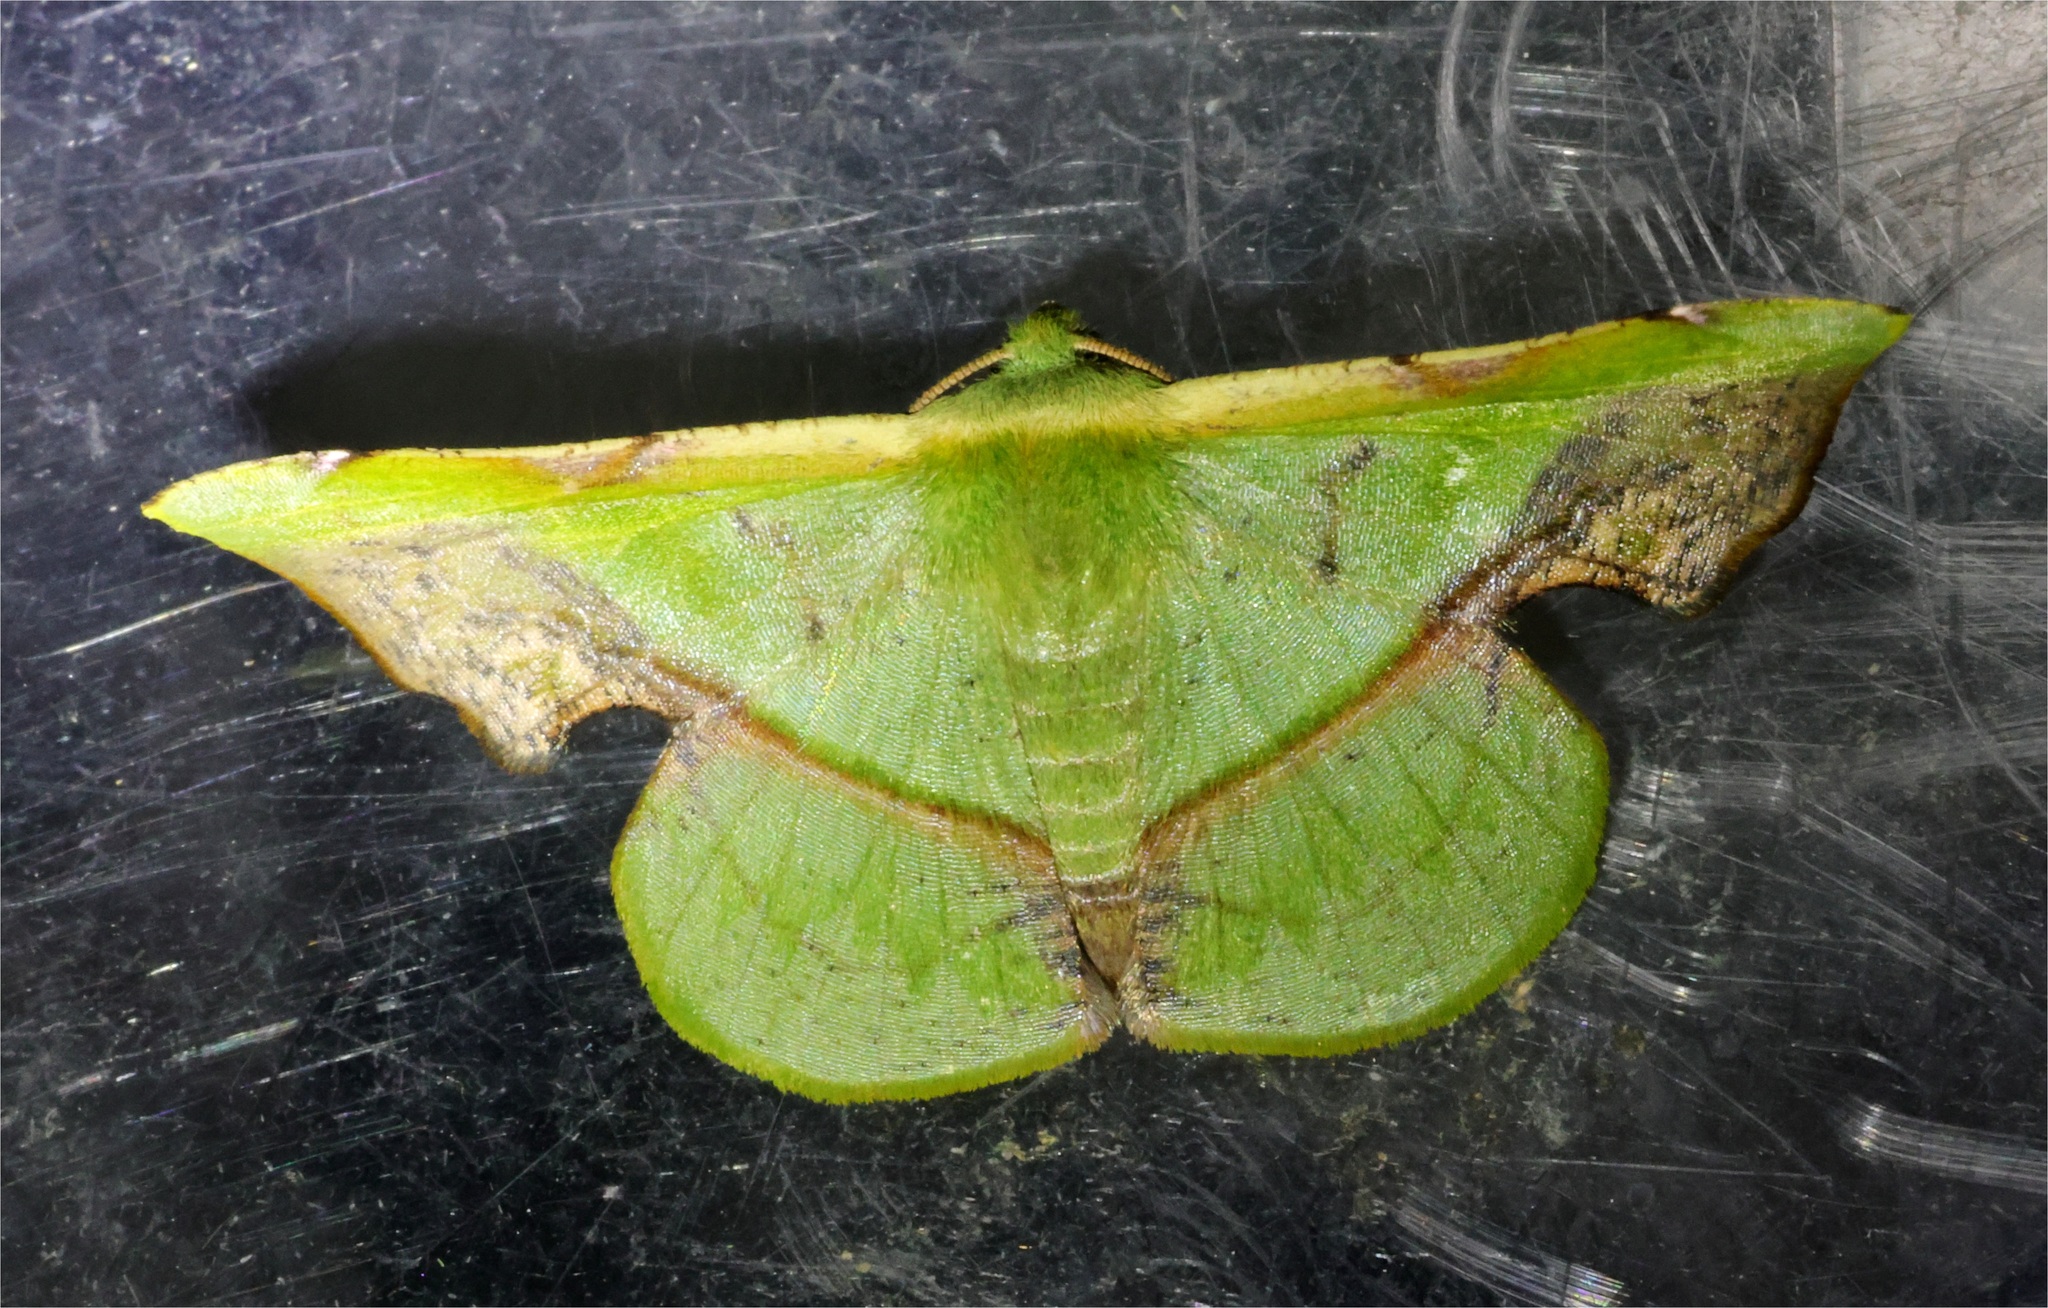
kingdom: Animalia
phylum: Arthropoda
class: Insecta
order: Lepidoptera
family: Geometridae
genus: Fascellina
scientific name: Fascellina plagiata
